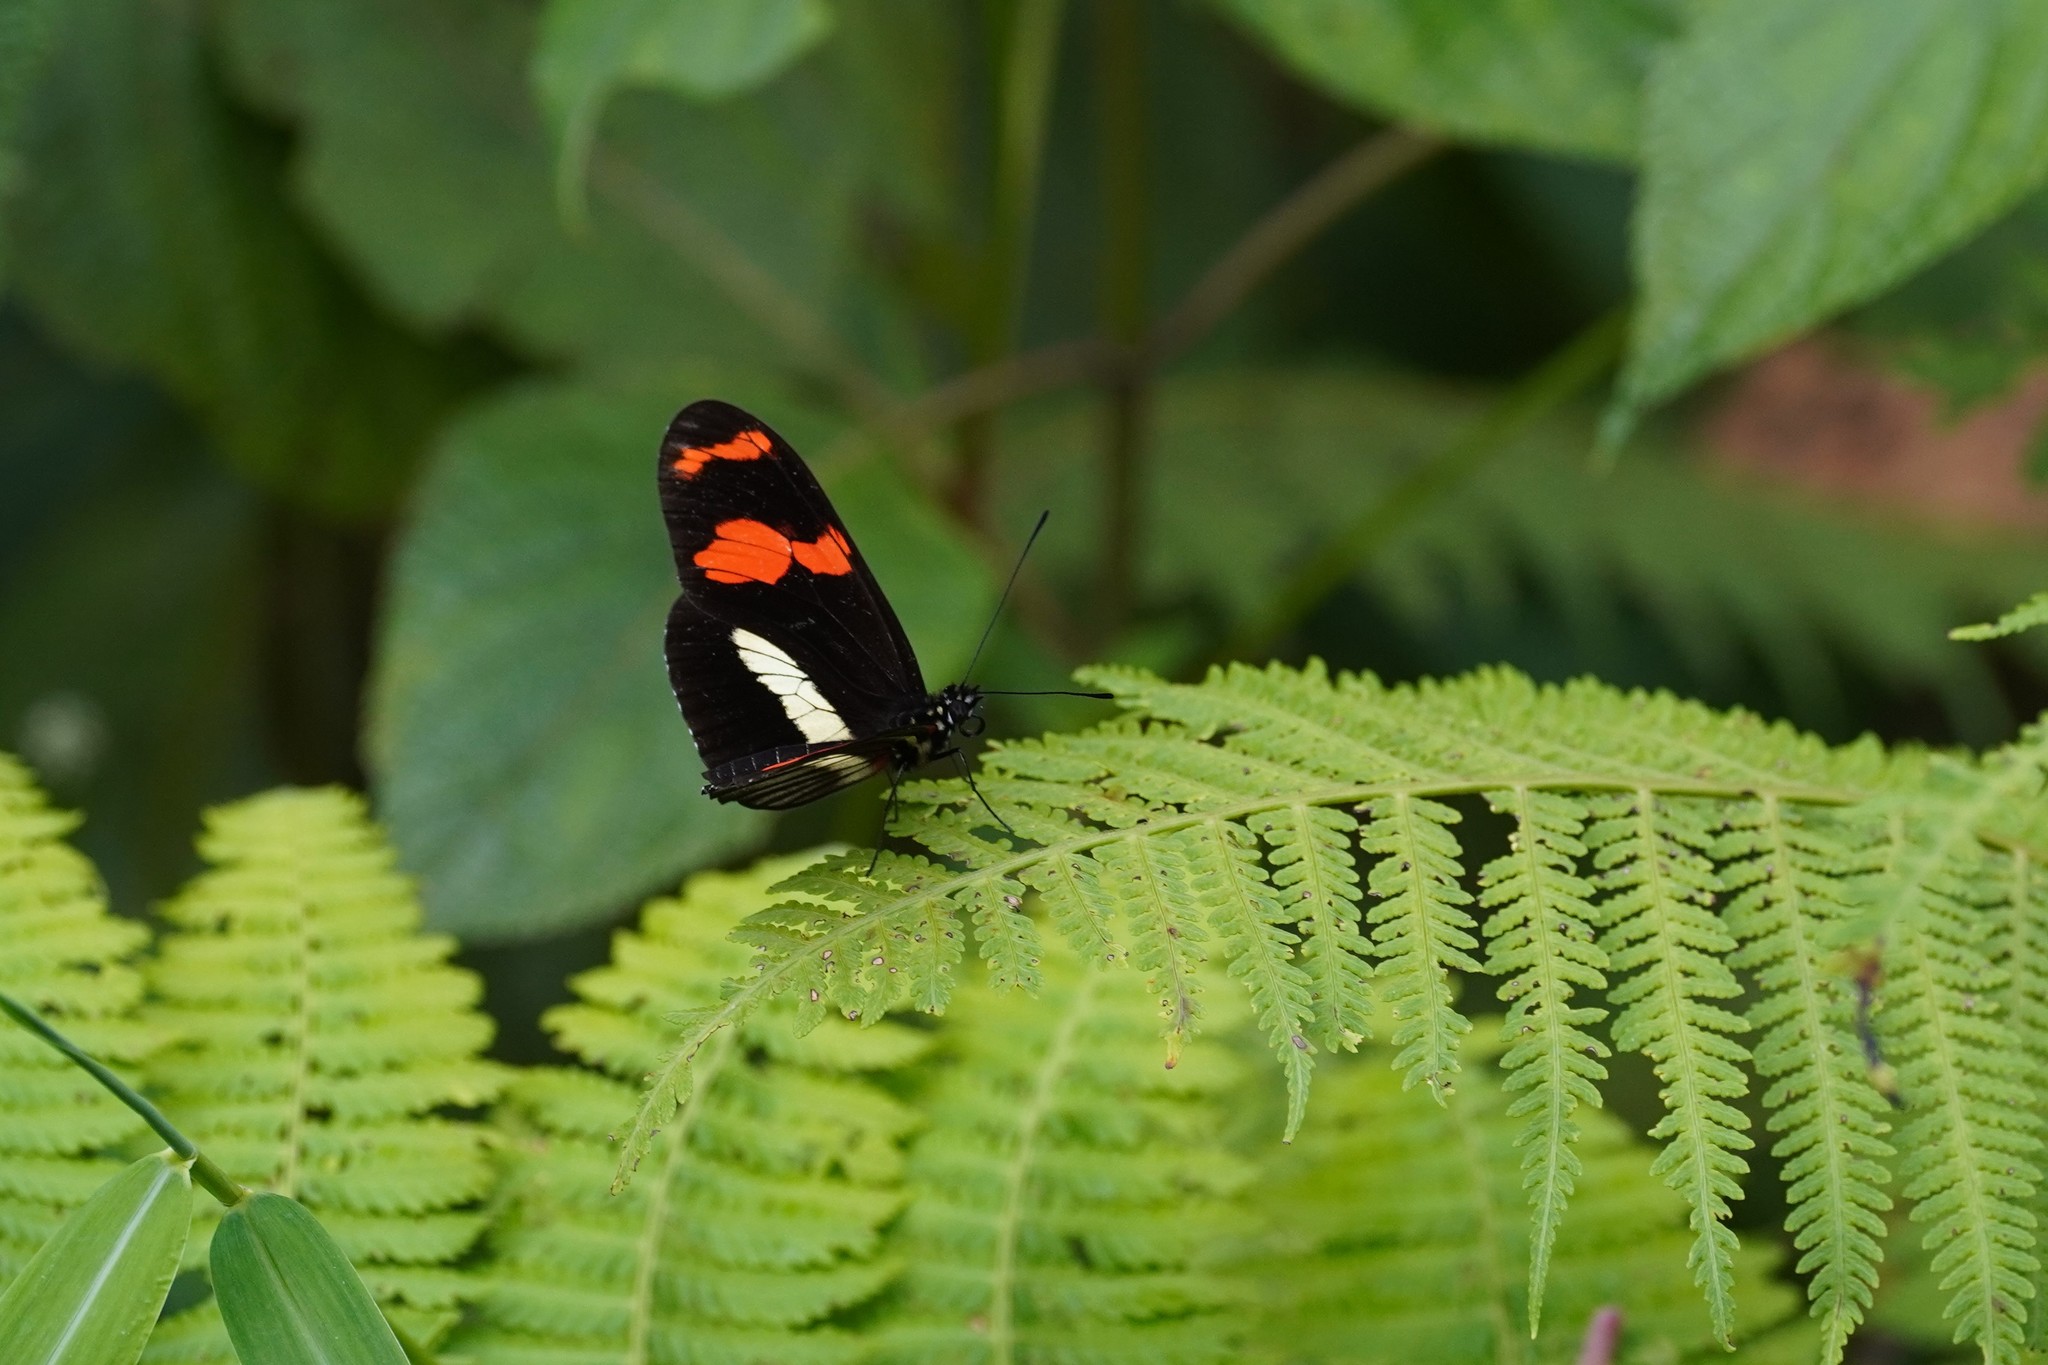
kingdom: Animalia
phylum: Arthropoda
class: Insecta
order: Lepidoptera
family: Nymphalidae
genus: Heliconius
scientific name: Heliconius telesiphe
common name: Telesiphe longwing
